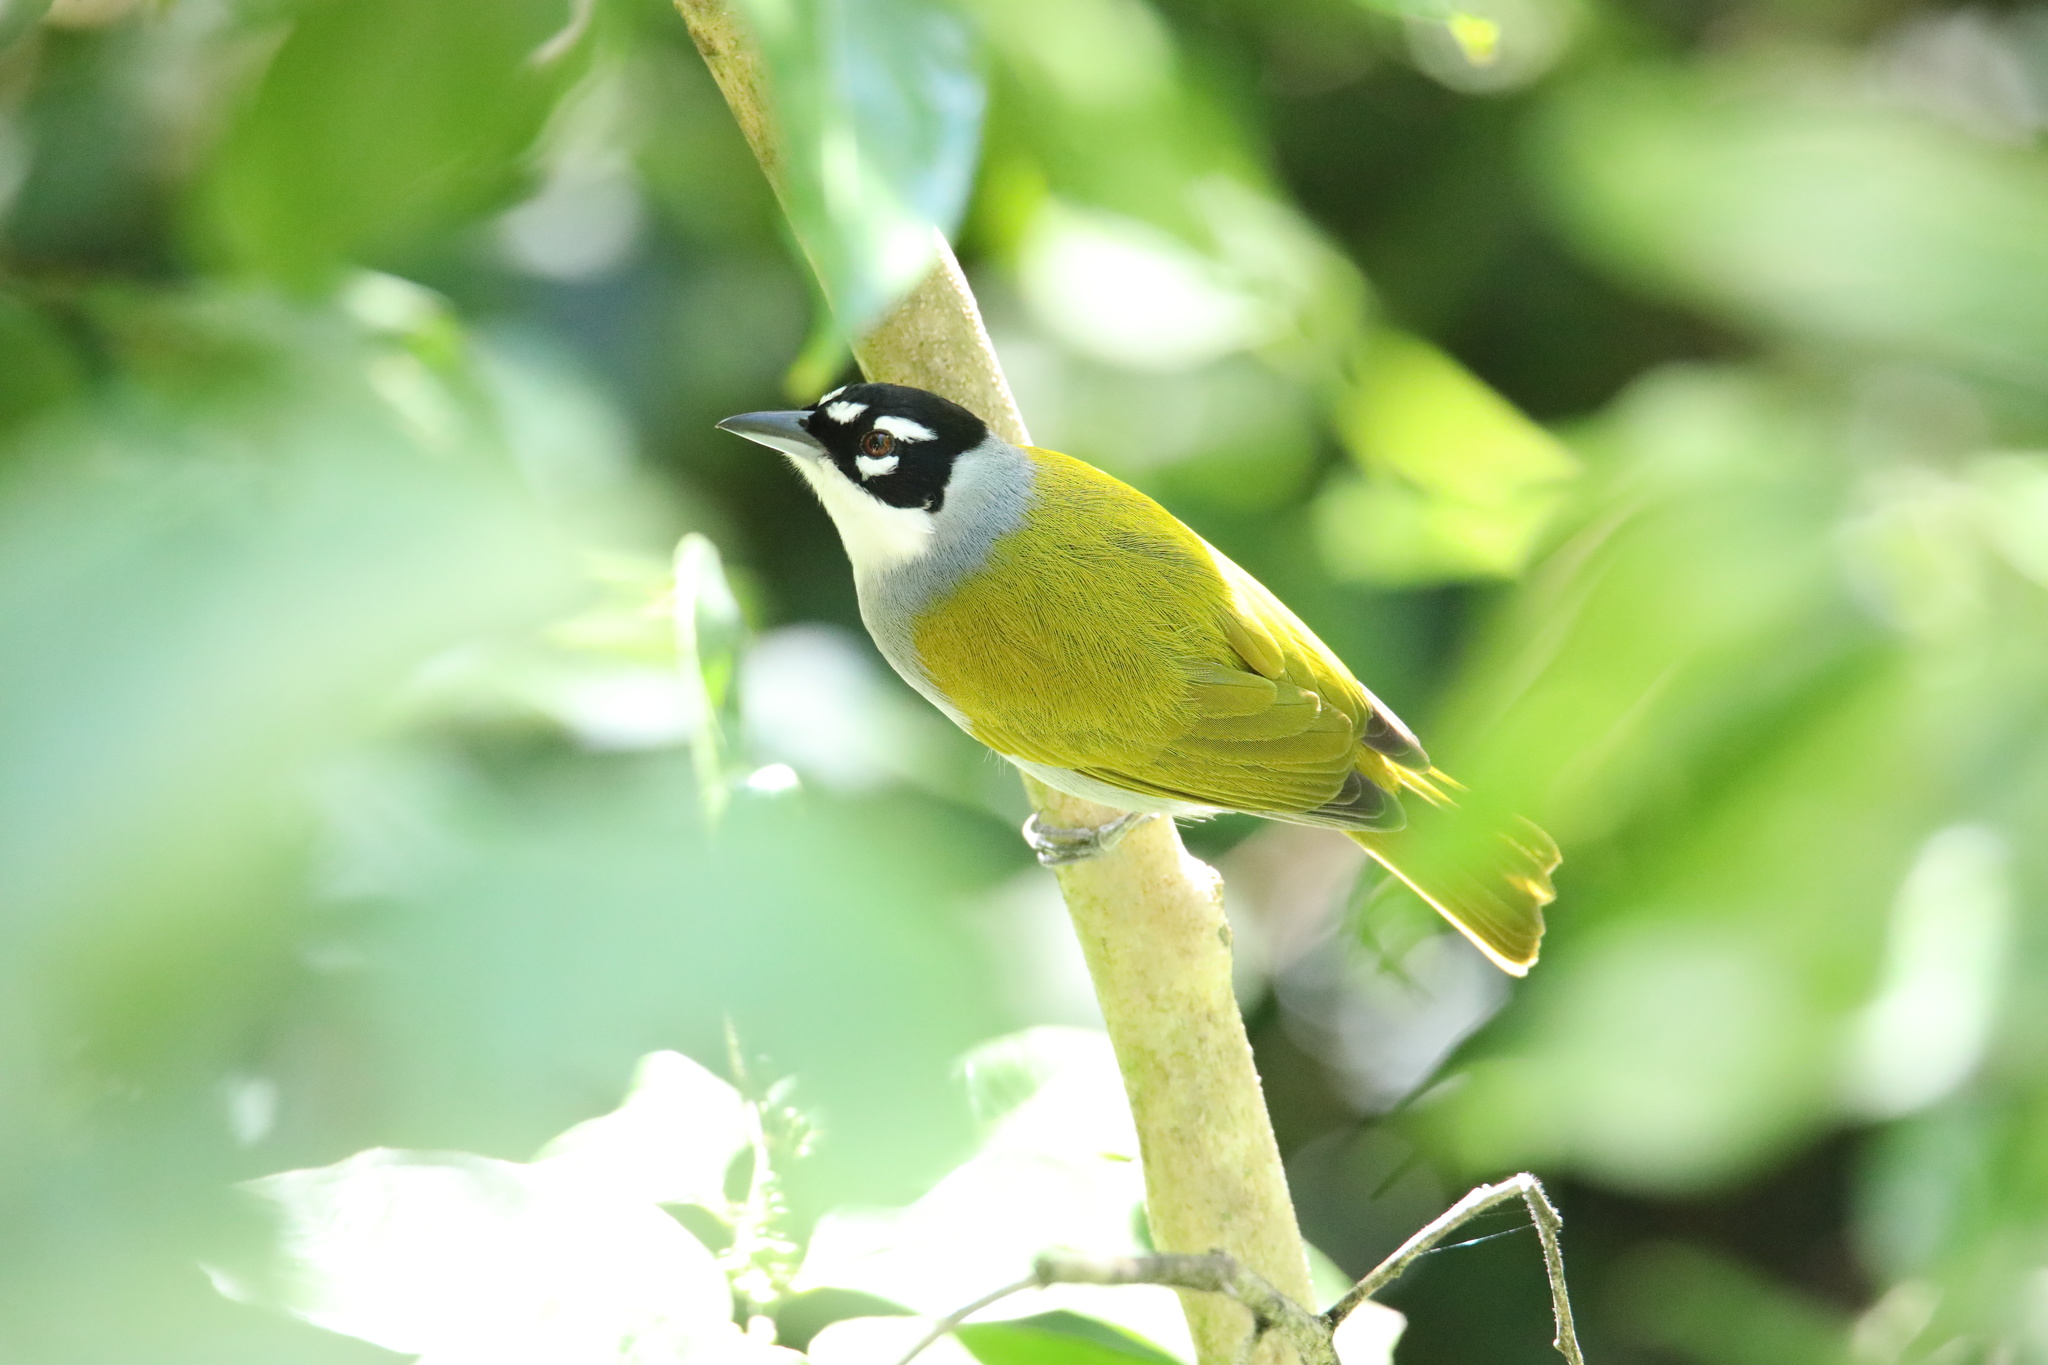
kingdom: Animalia
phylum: Chordata
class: Aves
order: Passeriformes
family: Phaenicophilidae
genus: Phaenicophilus
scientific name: Phaenicophilus palmarum
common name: Black-crowned palm-tanager
